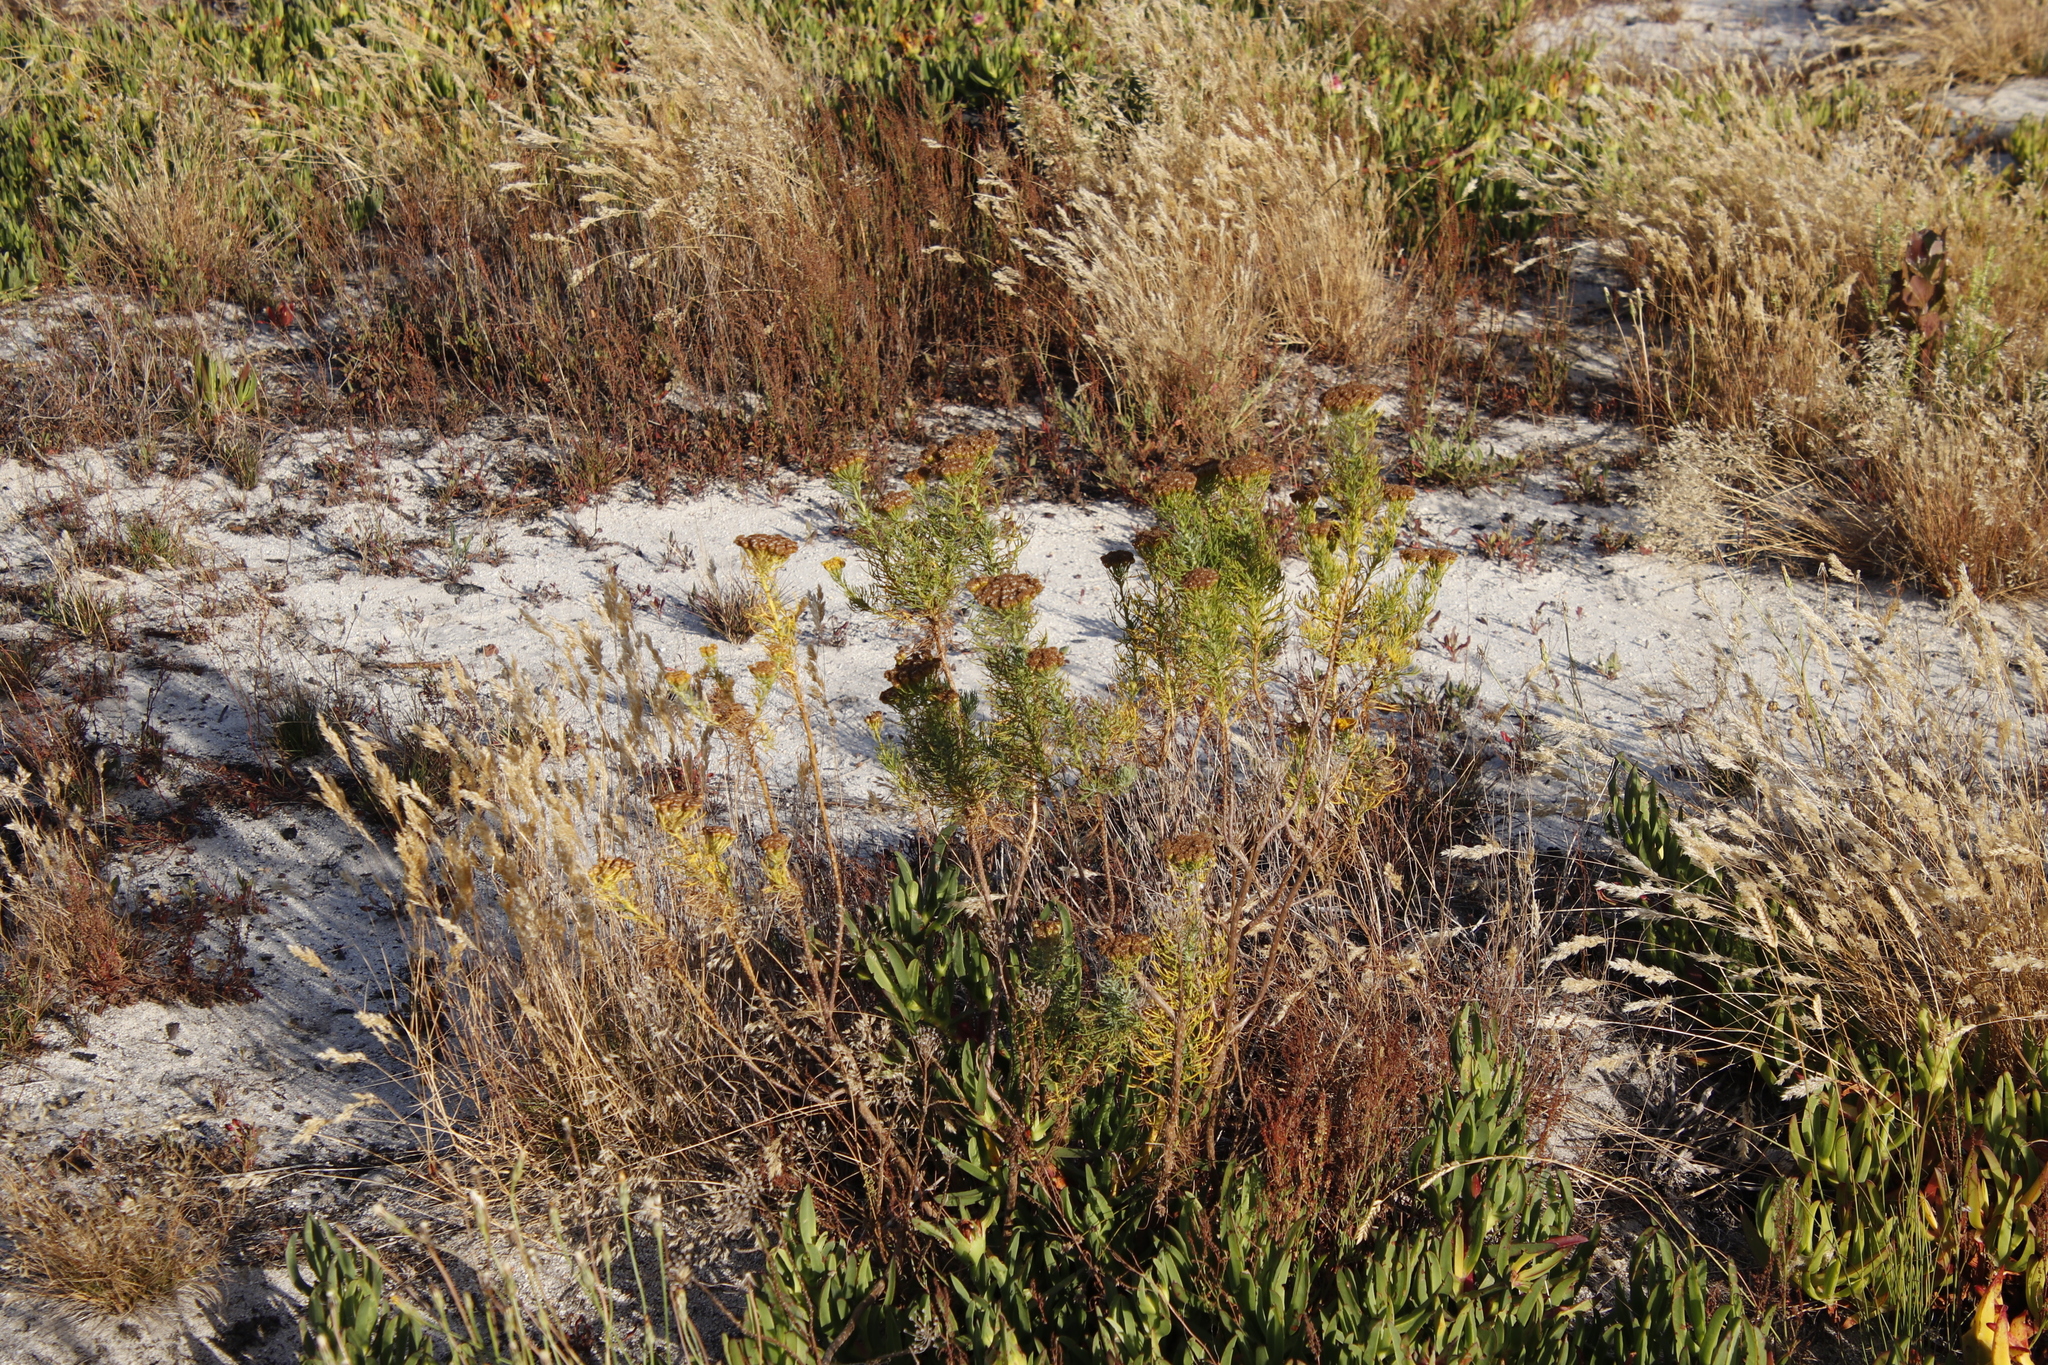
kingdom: Plantae
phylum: Tracheophyta
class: Magnoliopsida
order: Asterales
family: Asteraceae
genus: Athanasia
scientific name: Athanasia crithmifolia
